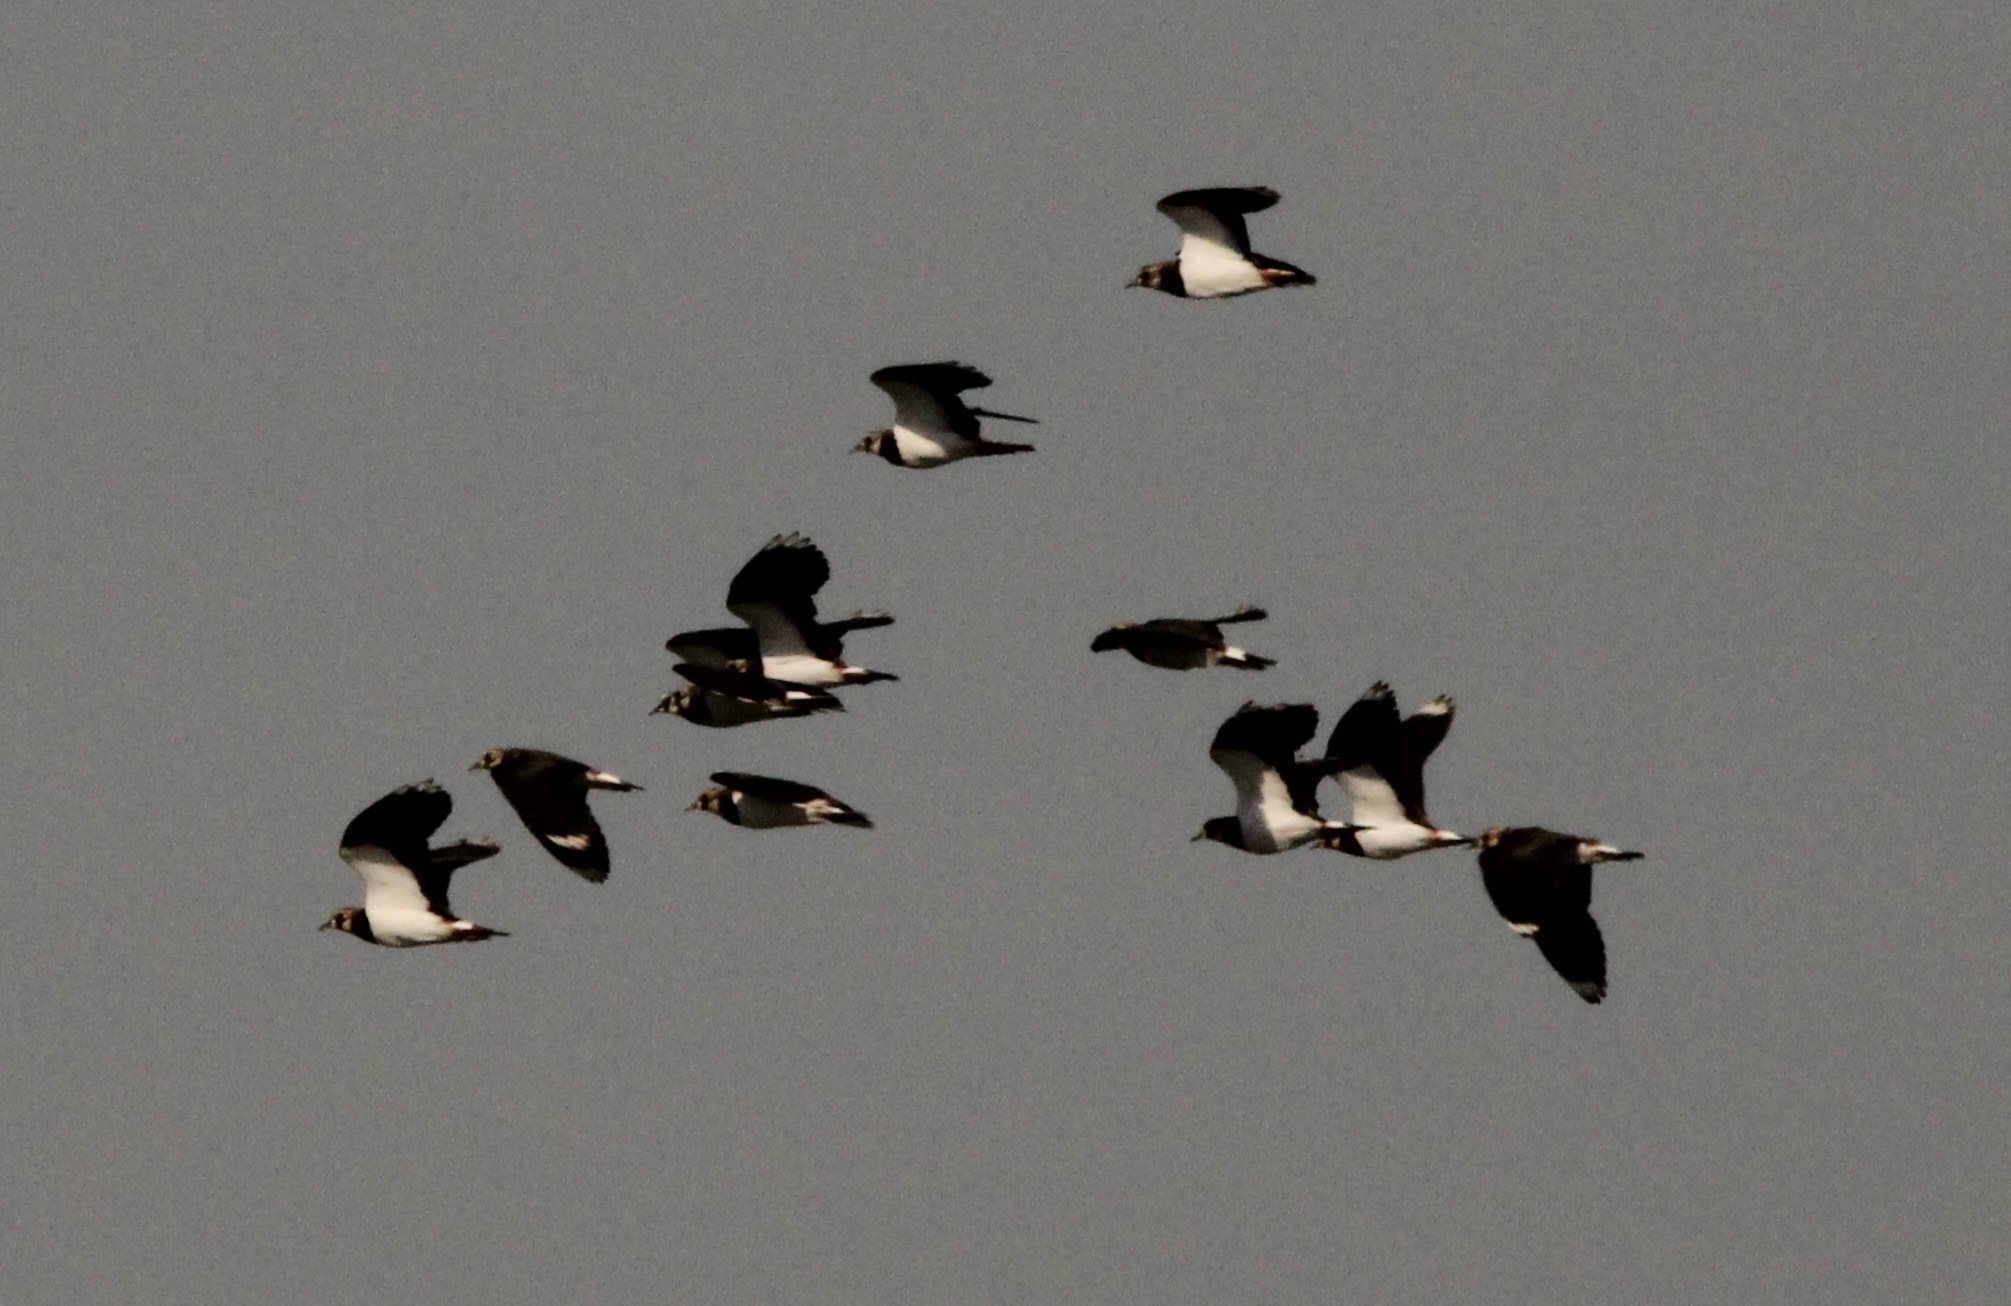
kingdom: Animalia
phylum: Chordata
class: Aves
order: Charadriiformes
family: Charadriidae
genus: Vanellus
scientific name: Vanellus vanellus
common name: Northern lapwing
